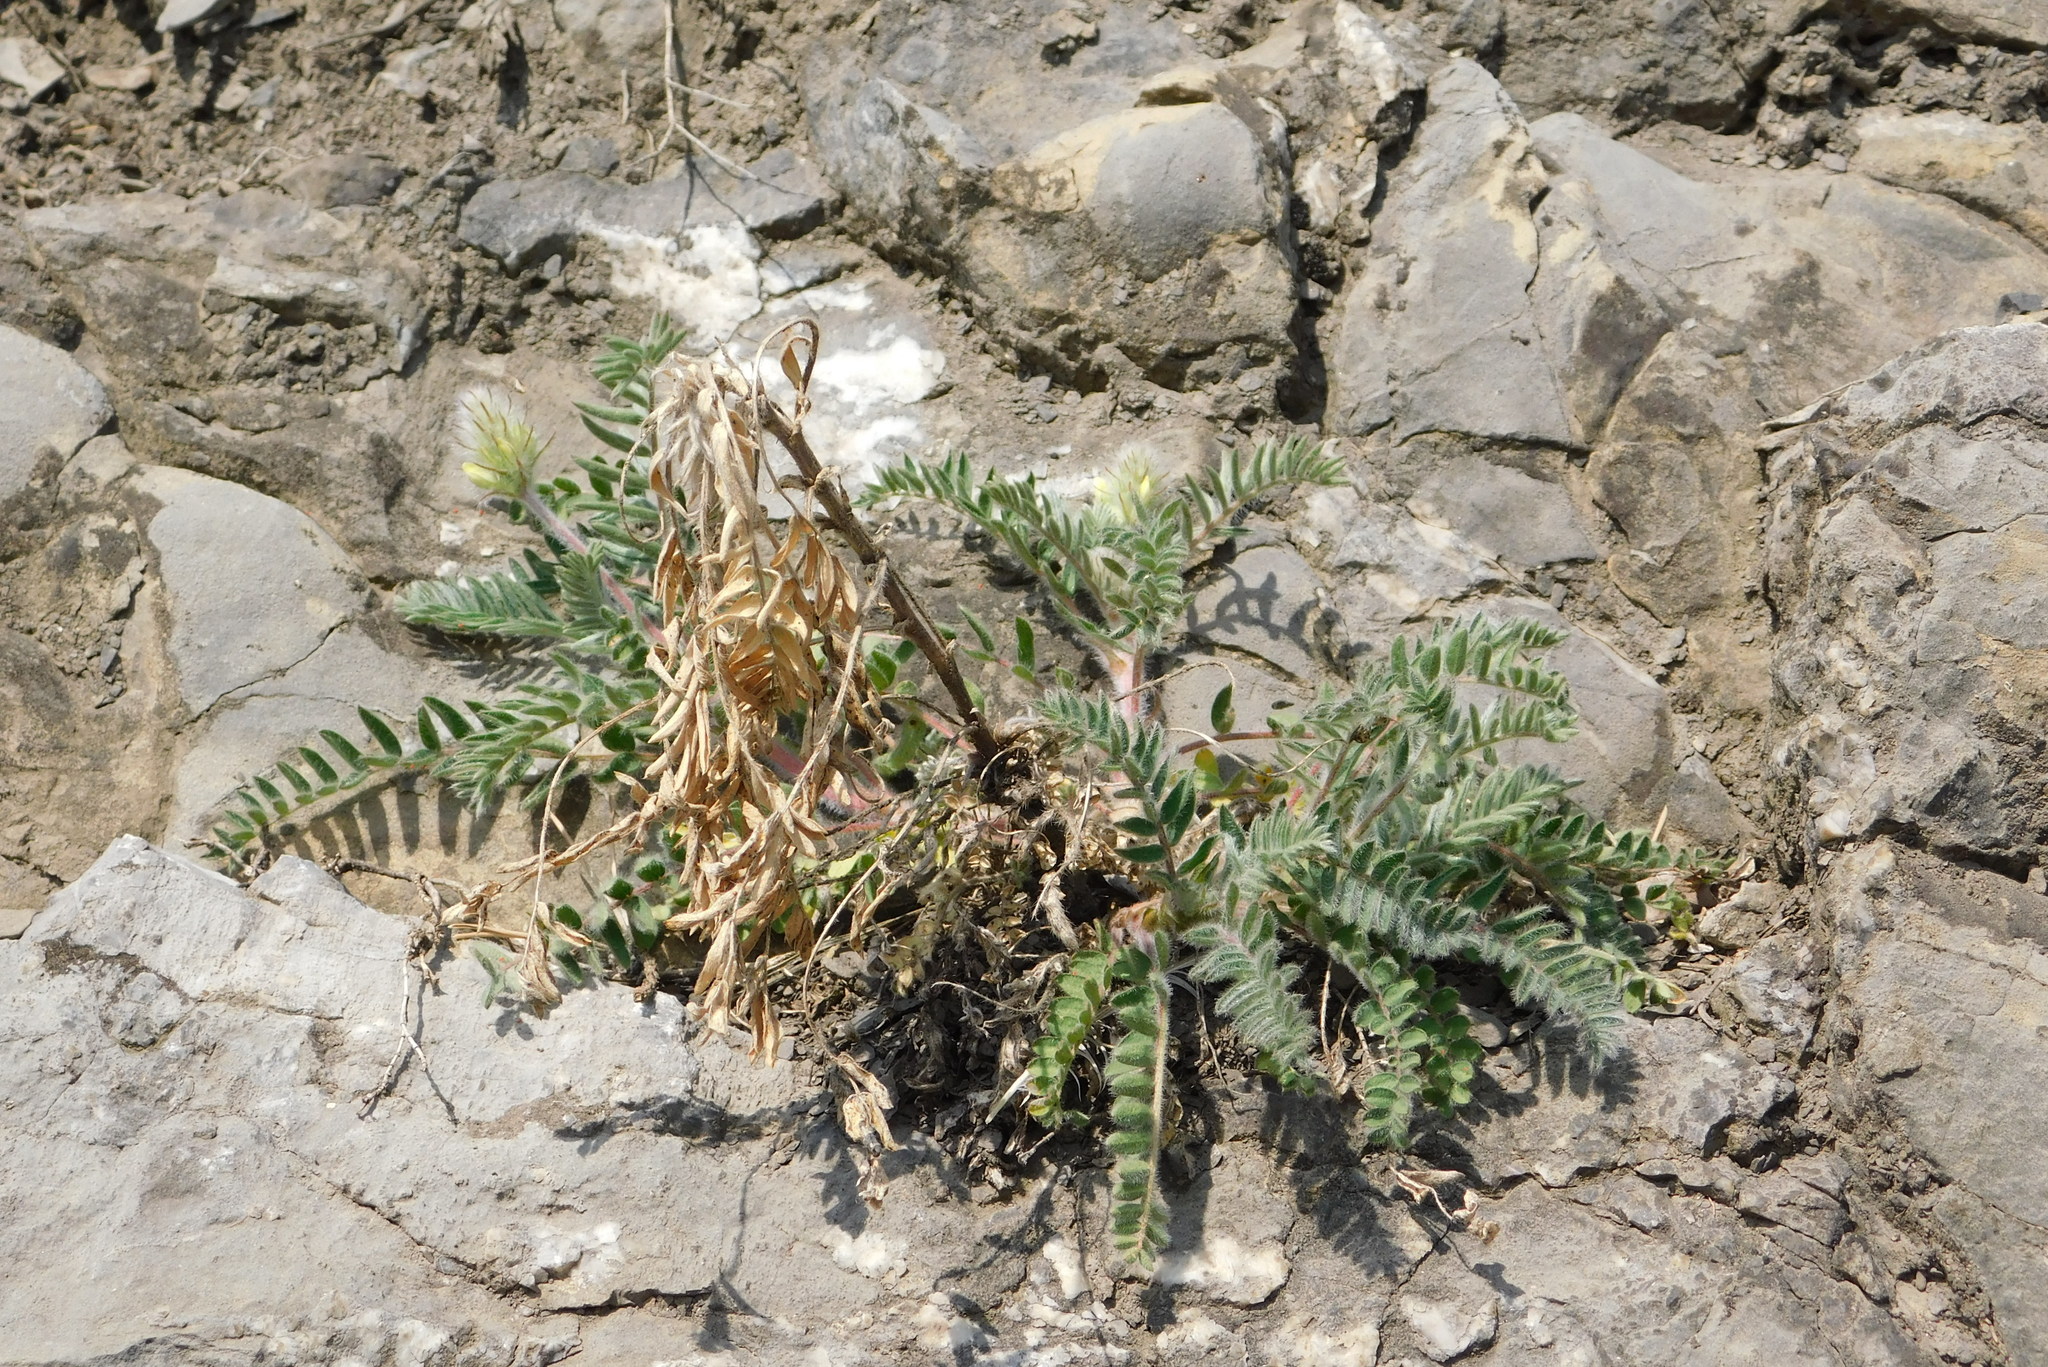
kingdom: Plantae
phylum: Tracheophyta
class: Magnoliopsida
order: Fabales
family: Fabaceae
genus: Oxytropis
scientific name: Oxytropis pilosa
